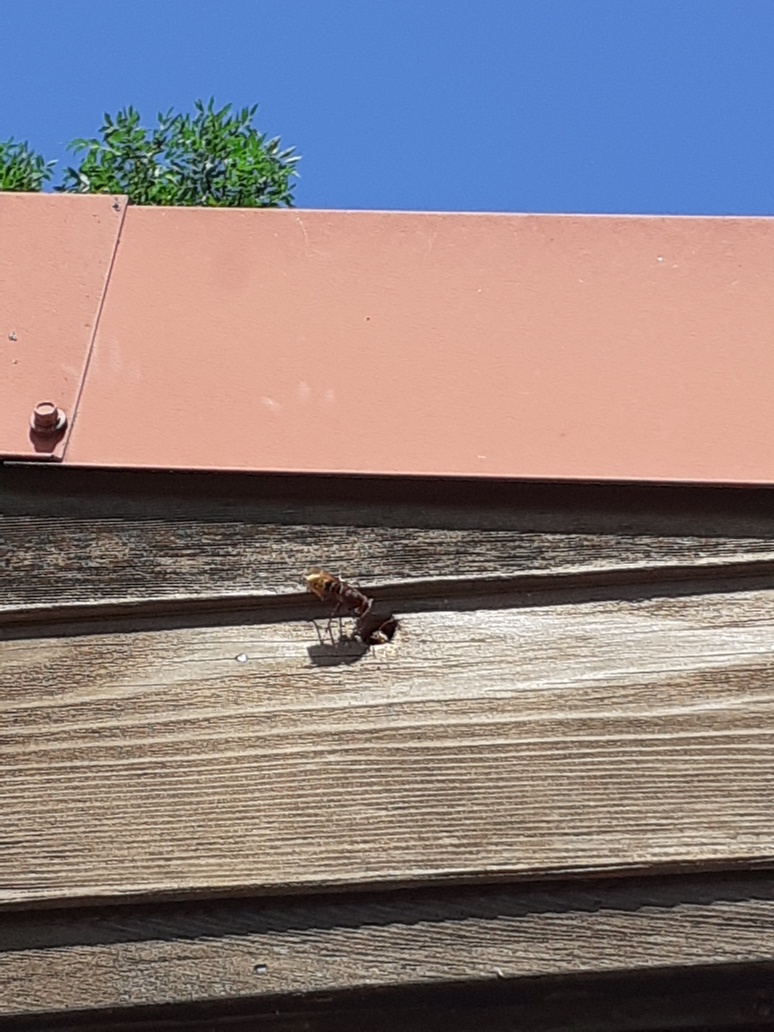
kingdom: Animalia
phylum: Arthropoda
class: Insecta
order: Hymenoptera
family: Vespidae
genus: Vespa
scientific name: Vespa crabro
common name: Hornet
